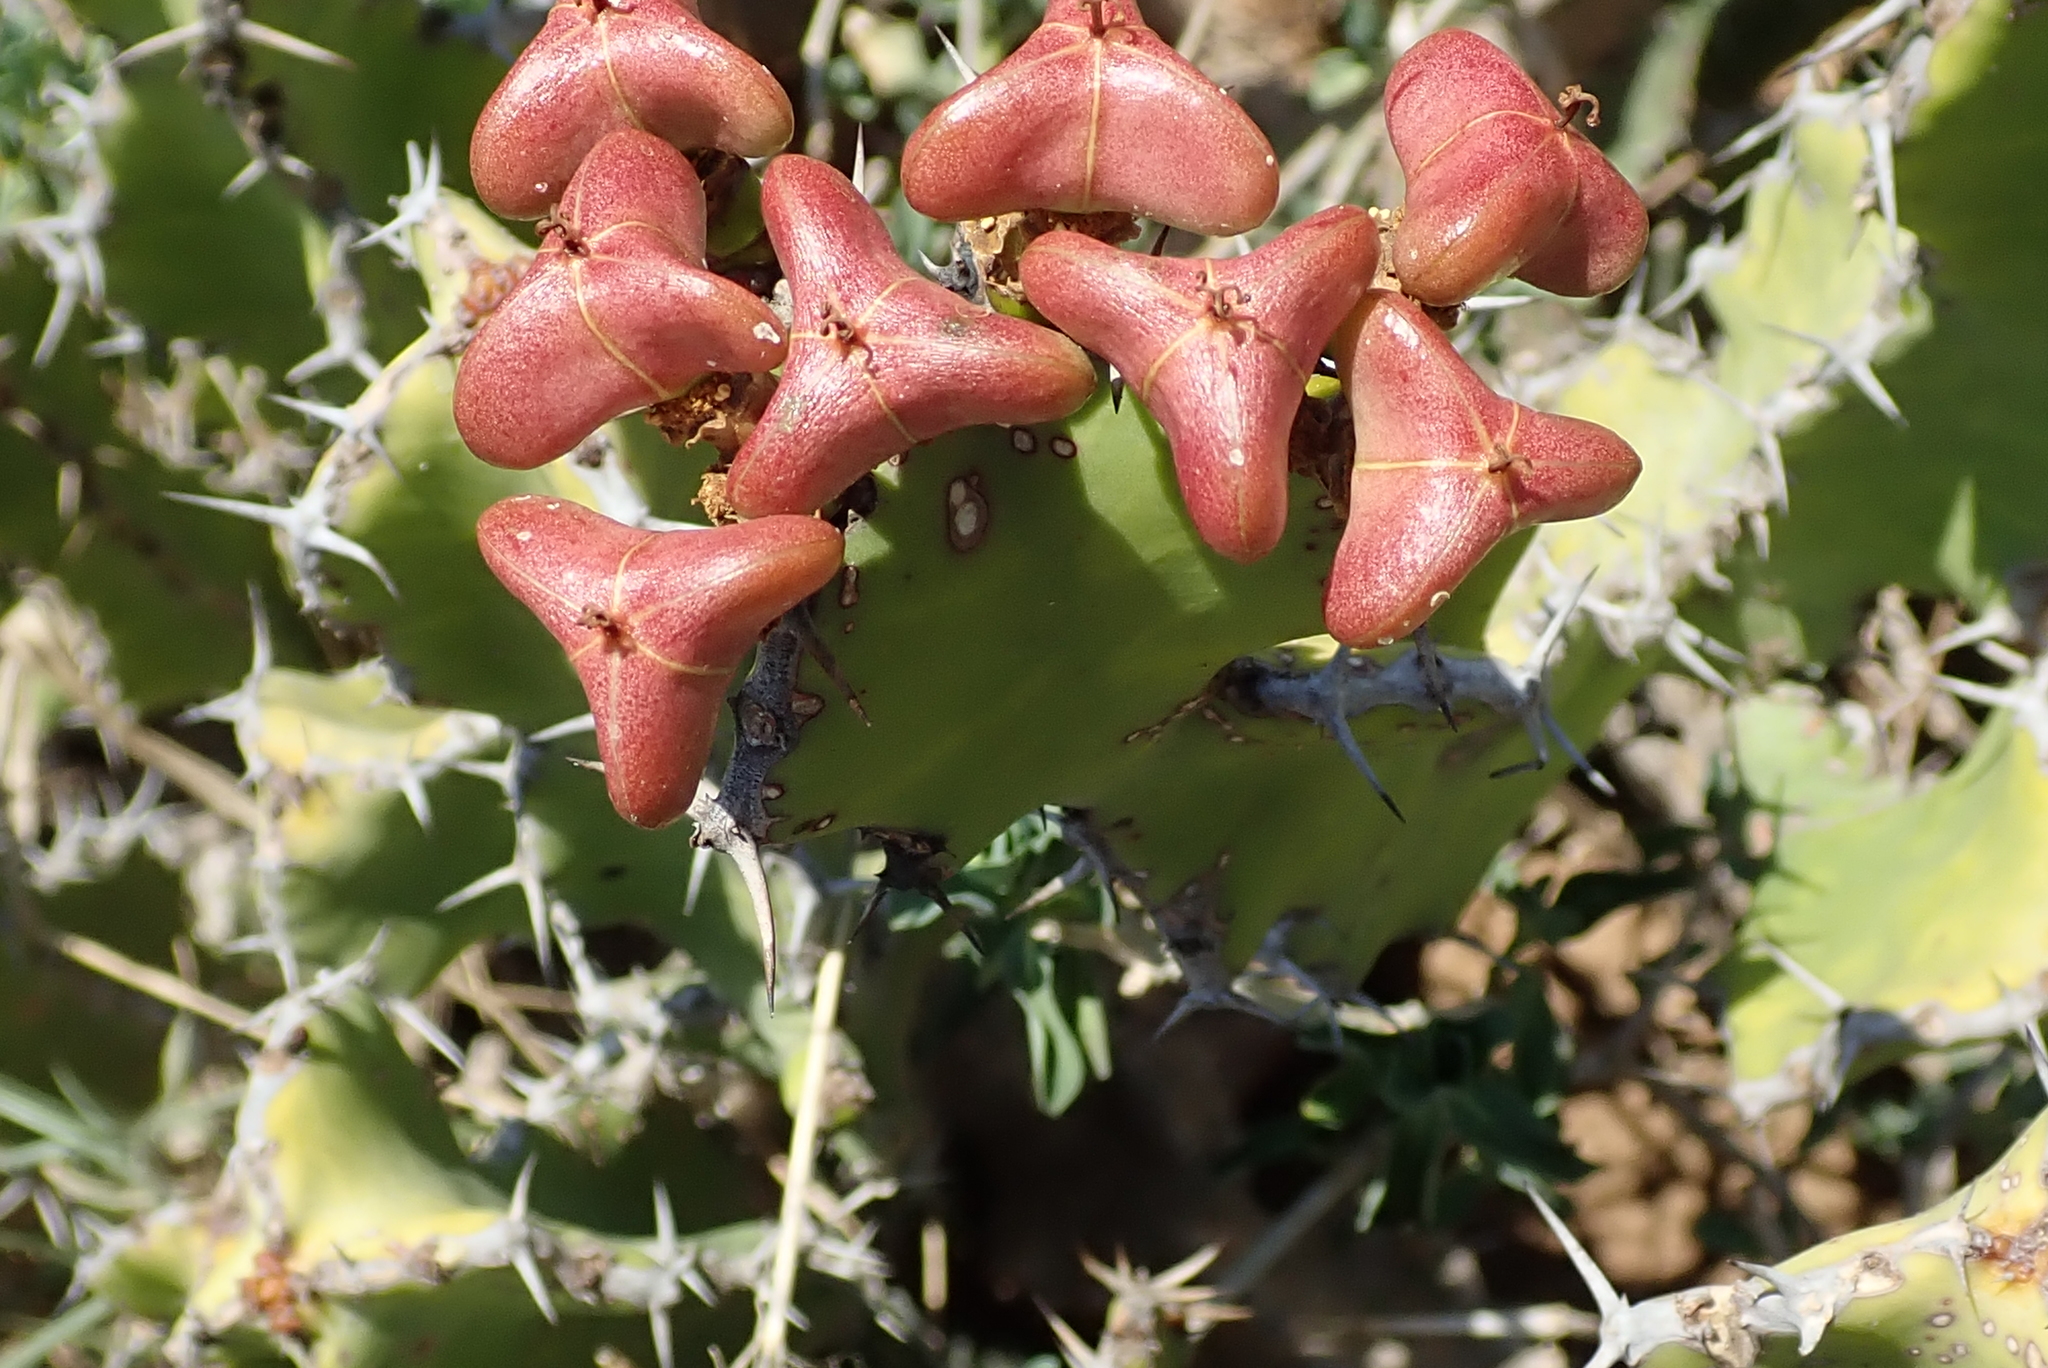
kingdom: Plantae
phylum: Tracheophyta
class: Magnoliopsida
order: Malpighiales
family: Euphorbiaceae
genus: Euphorbia
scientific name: Euphorbia pseudocactus
